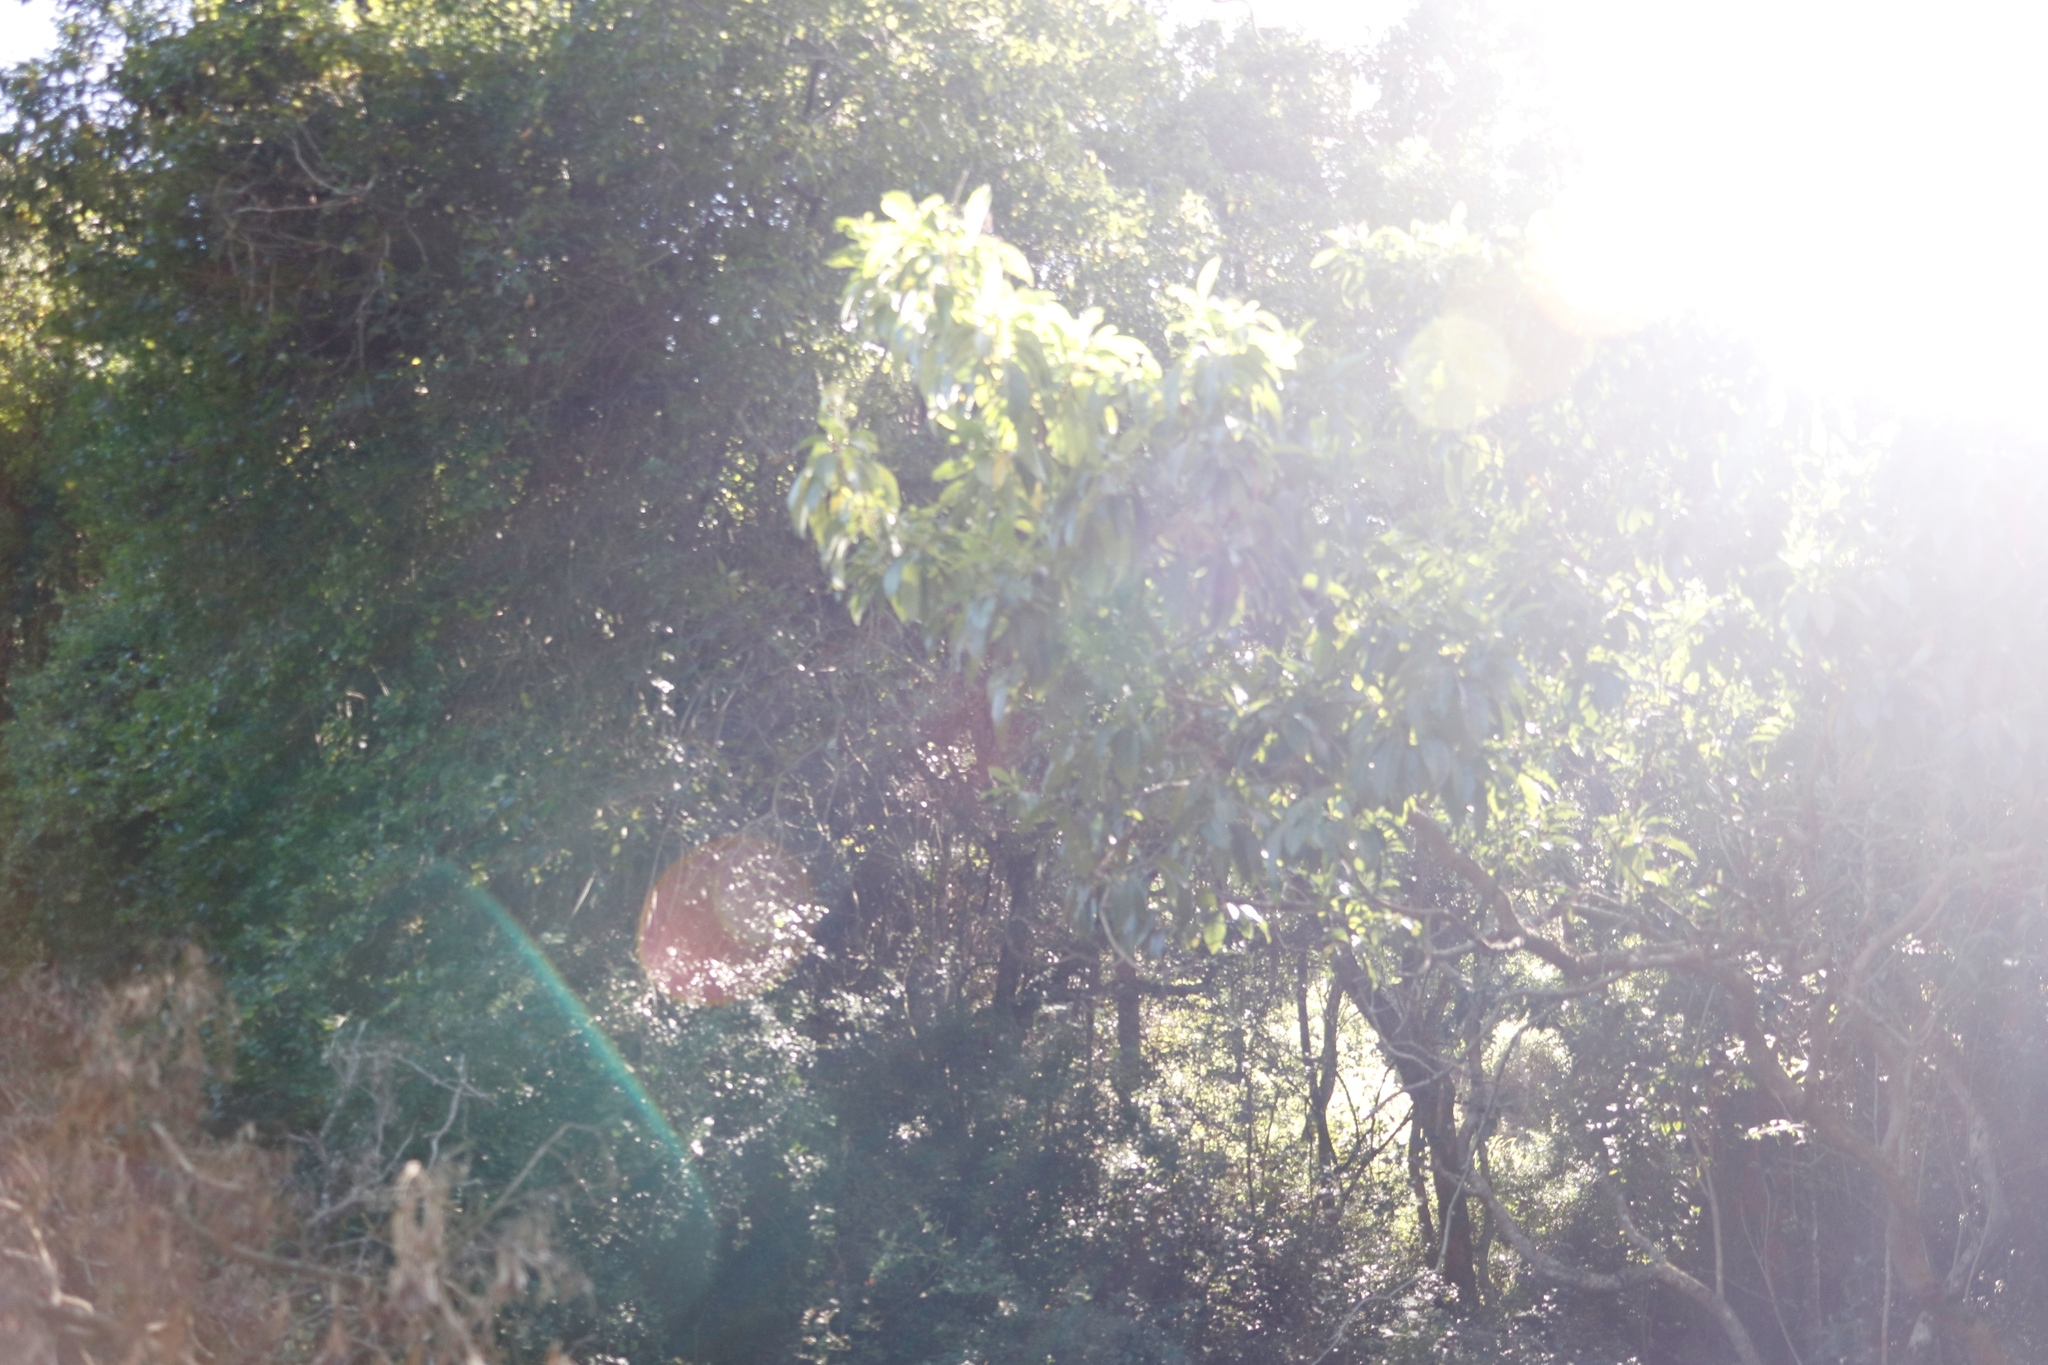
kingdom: Plantae
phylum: Tracheophyta
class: Magnoliopsida
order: Lamiales
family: Stilbaceae
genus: Nuxia
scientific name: Nuxia floribunda
